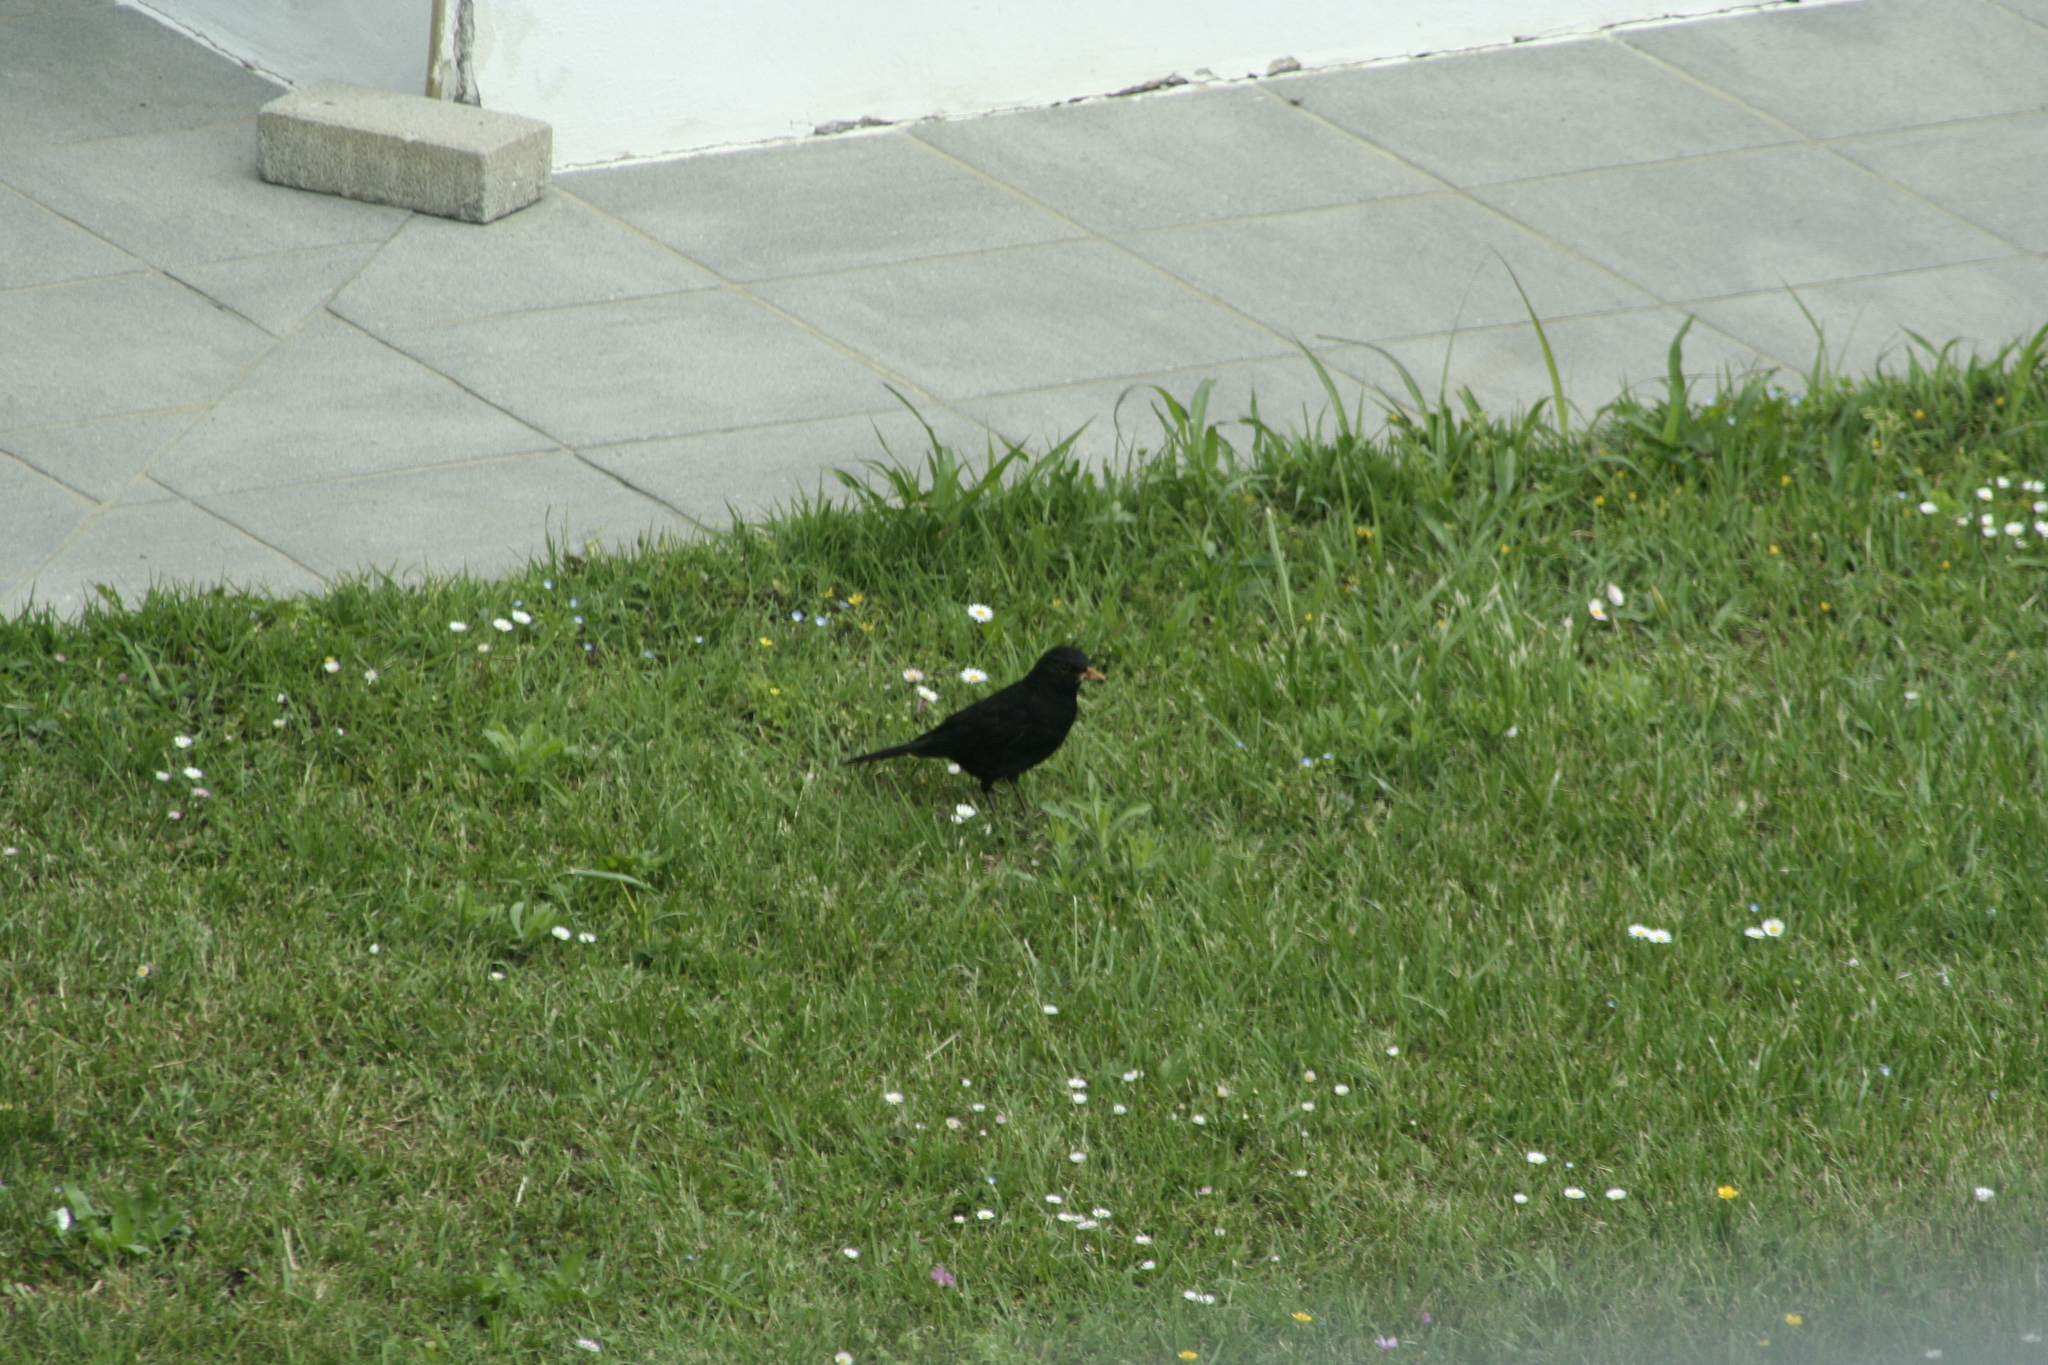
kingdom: Animalia
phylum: Chordata
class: Aves
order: Passeriformes
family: Turdidae
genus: Turdus
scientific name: Turdus merula
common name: Common blackbird
